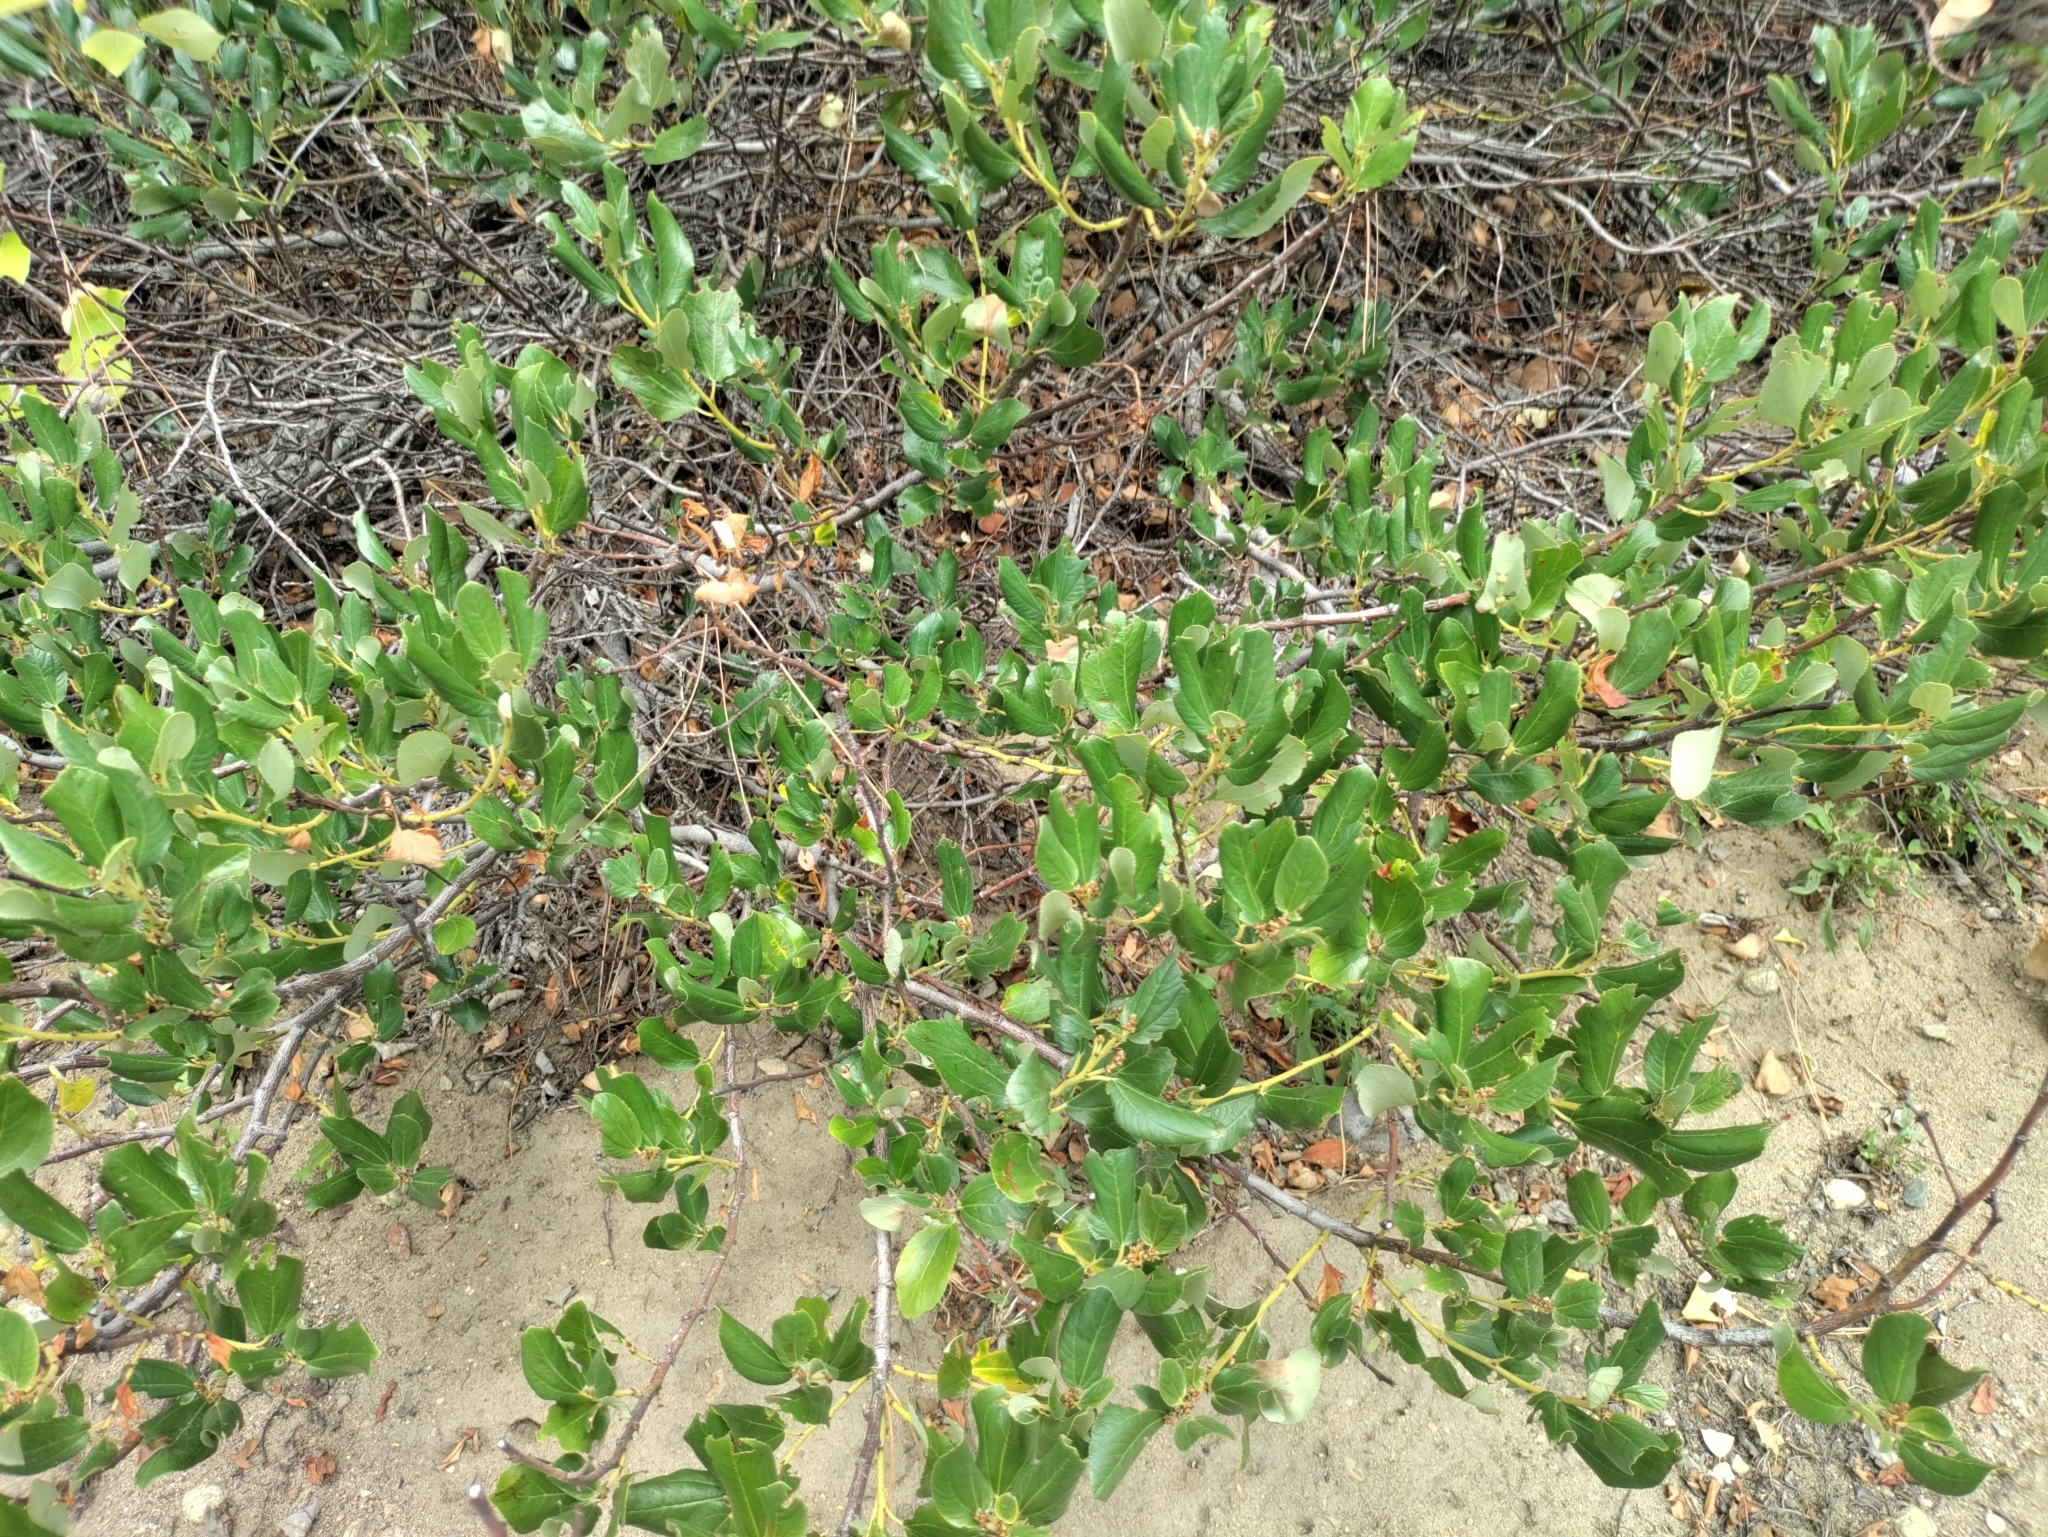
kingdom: Plantae
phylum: Tracheophyta
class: Magnoliopsida
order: Rosales
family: Rhamnaceae
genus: Ceanothus
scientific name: Ceanothus velutinus
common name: Snowbrush
